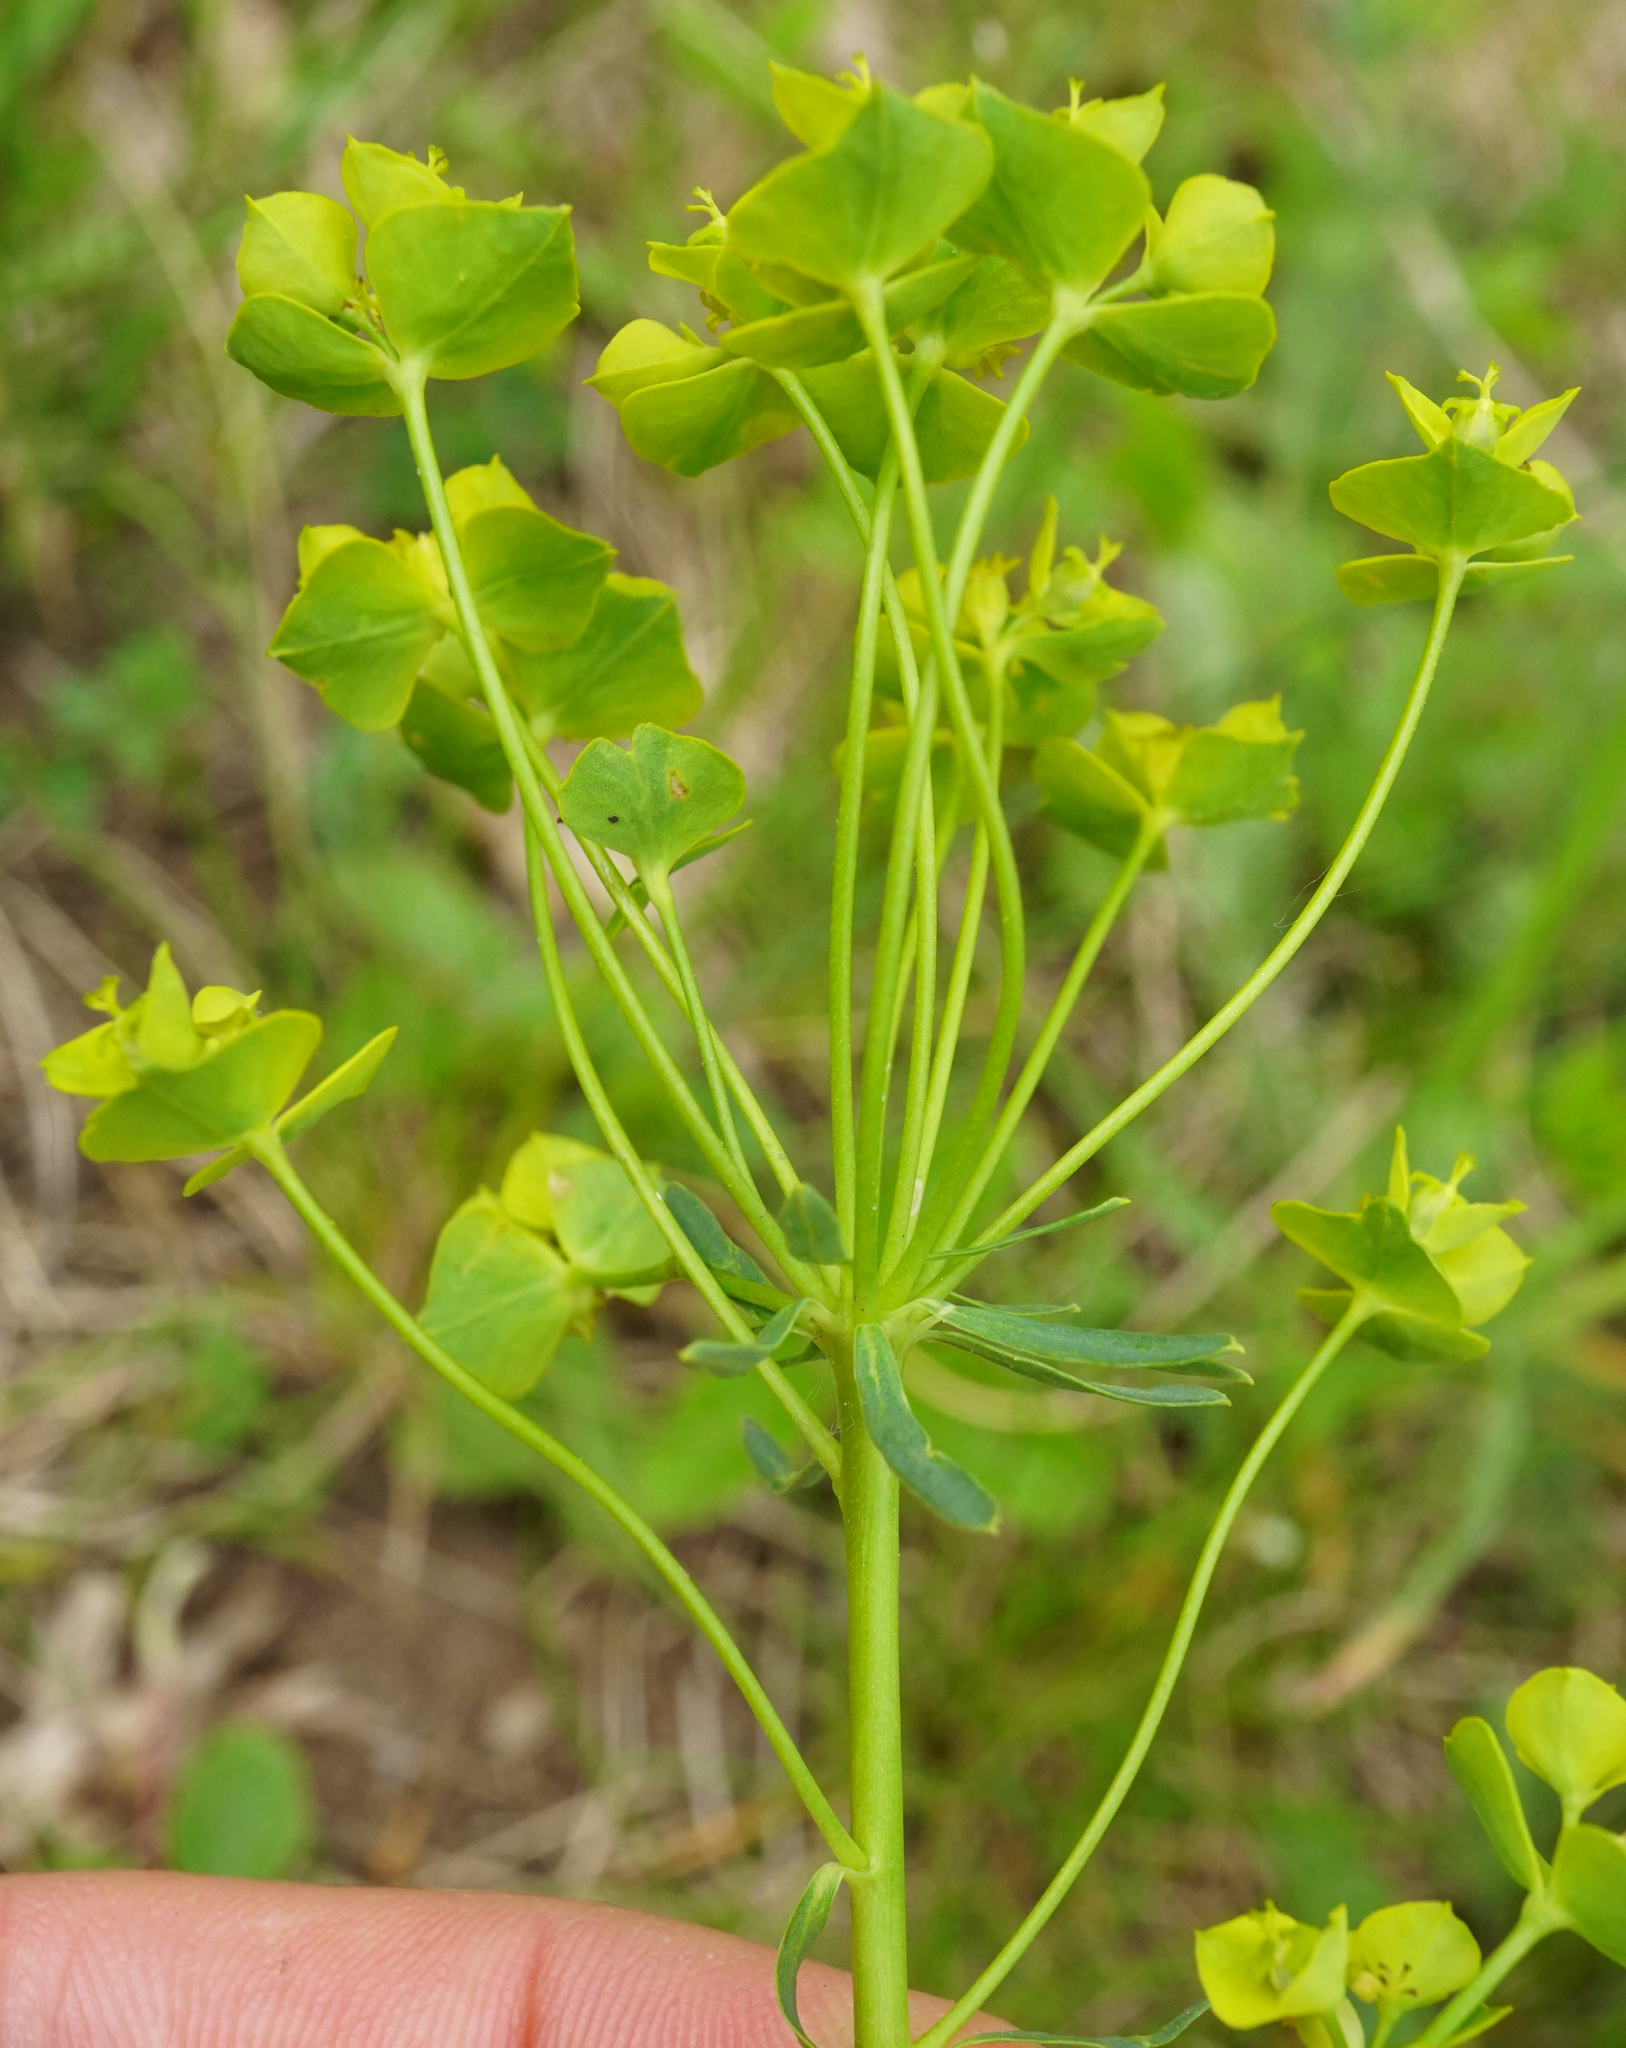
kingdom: Plantae
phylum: Tracheophyta
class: Magnoliopsida
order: Malpighiales
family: Euphorbiaceae
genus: Euphorbia
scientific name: Euphorbia esula
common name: Leafy spurge
